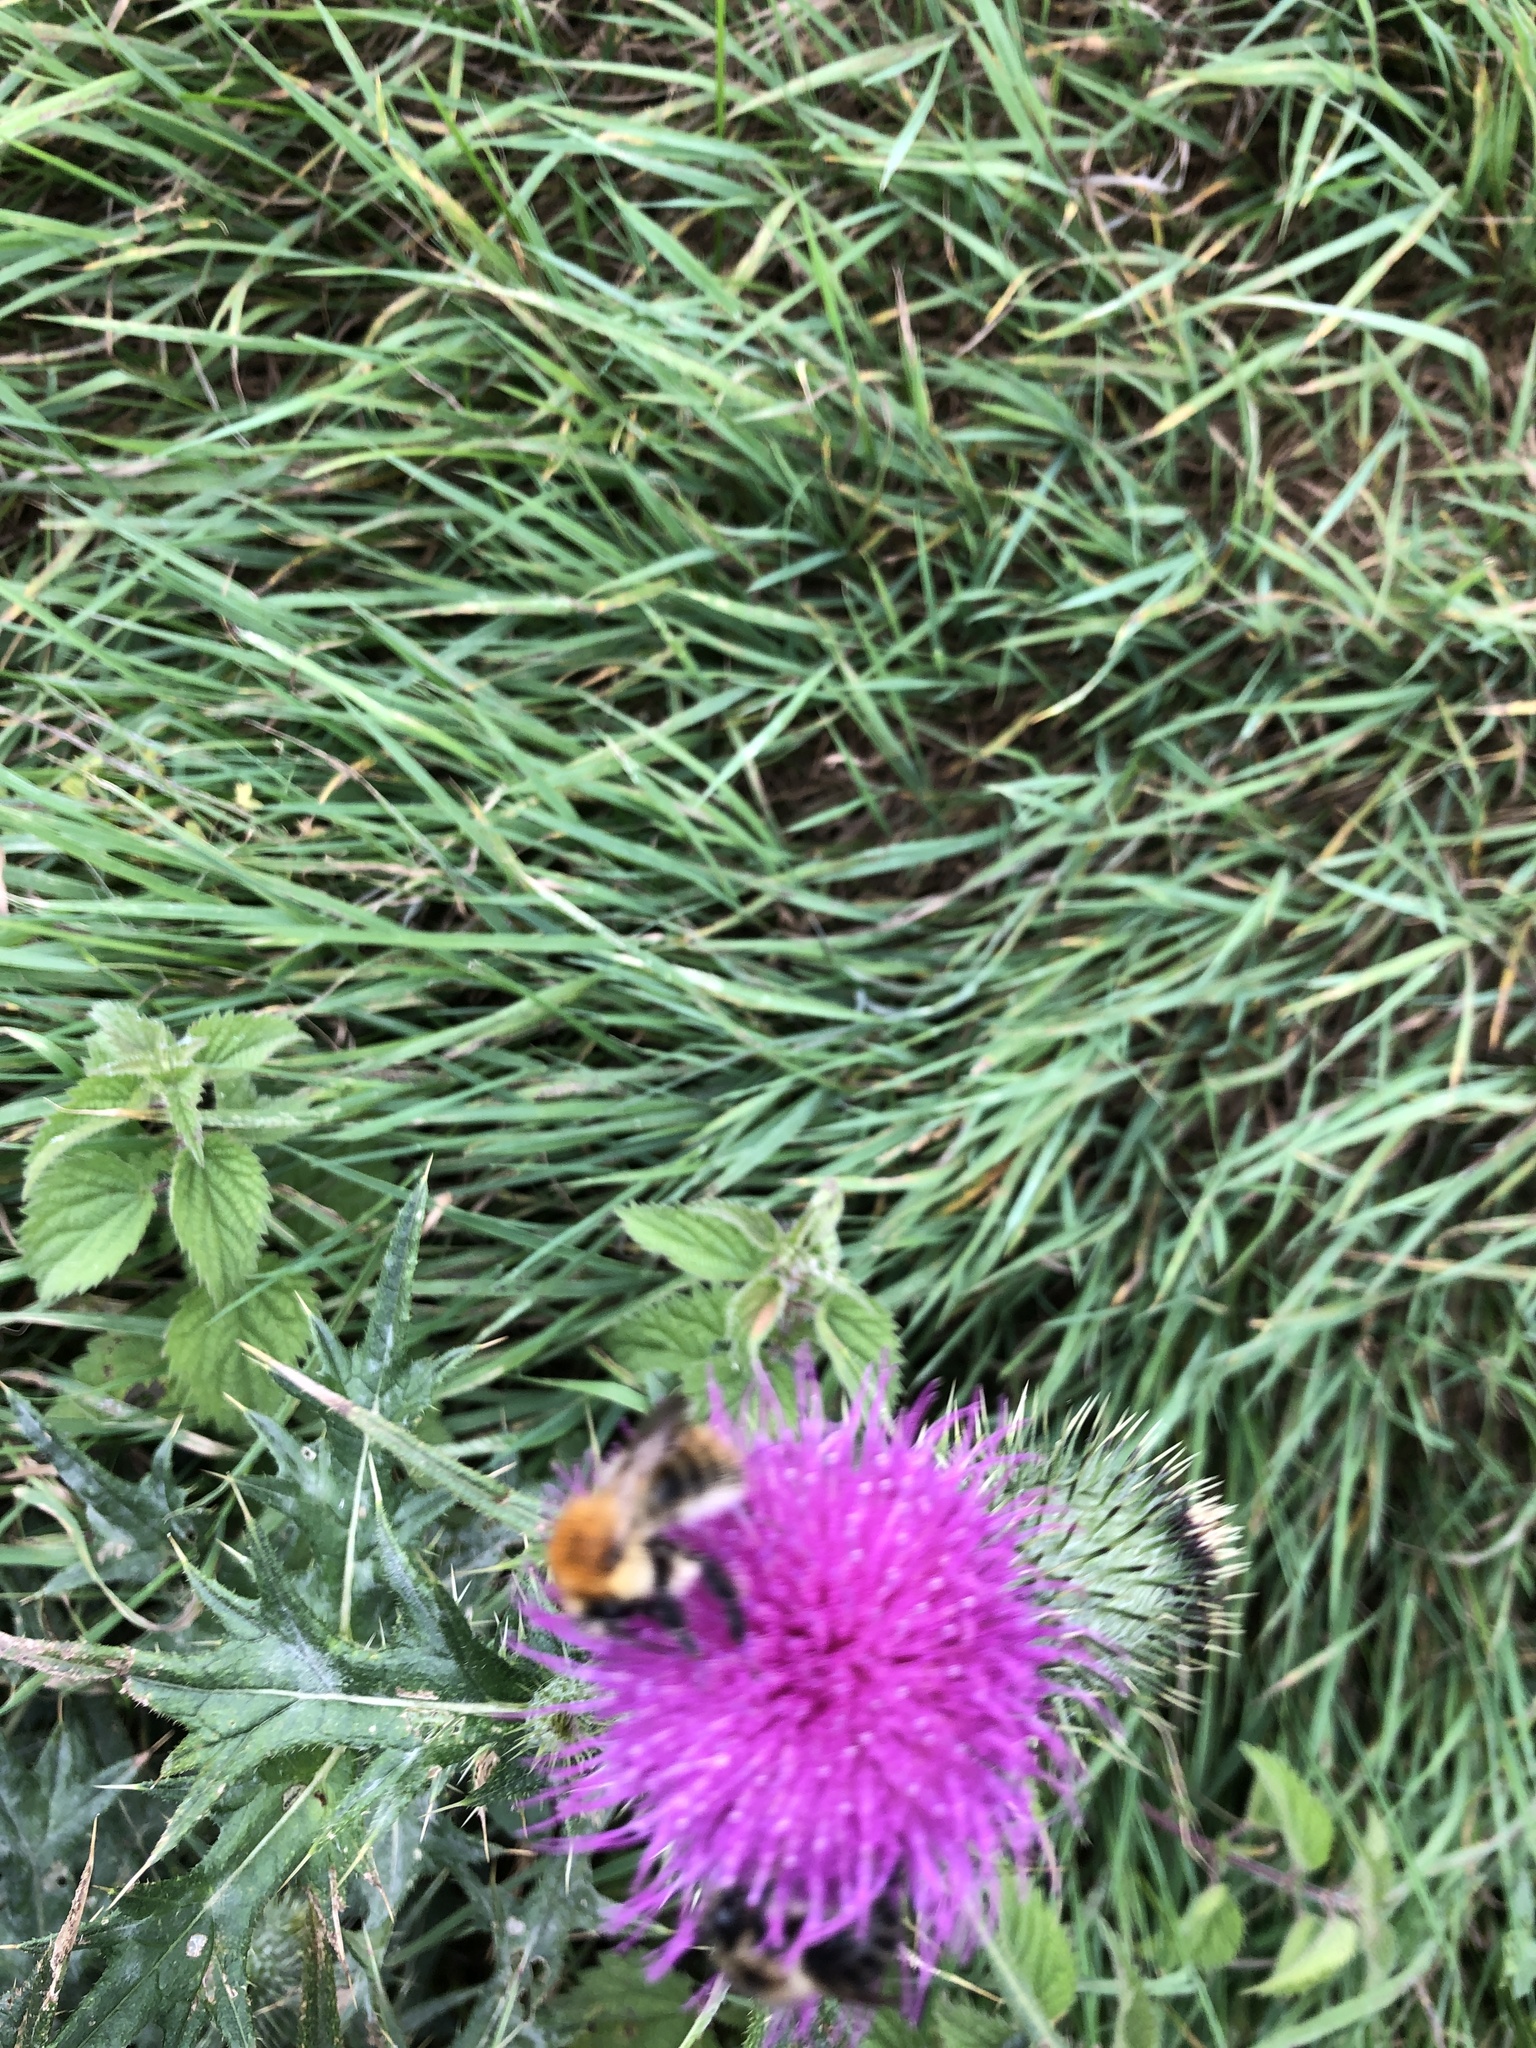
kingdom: Animalia
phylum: Arthropoda
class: Insecta
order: Hymenoptera
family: Apidae
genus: Bombus
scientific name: Bombus pascuorum
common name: Common carder bee
